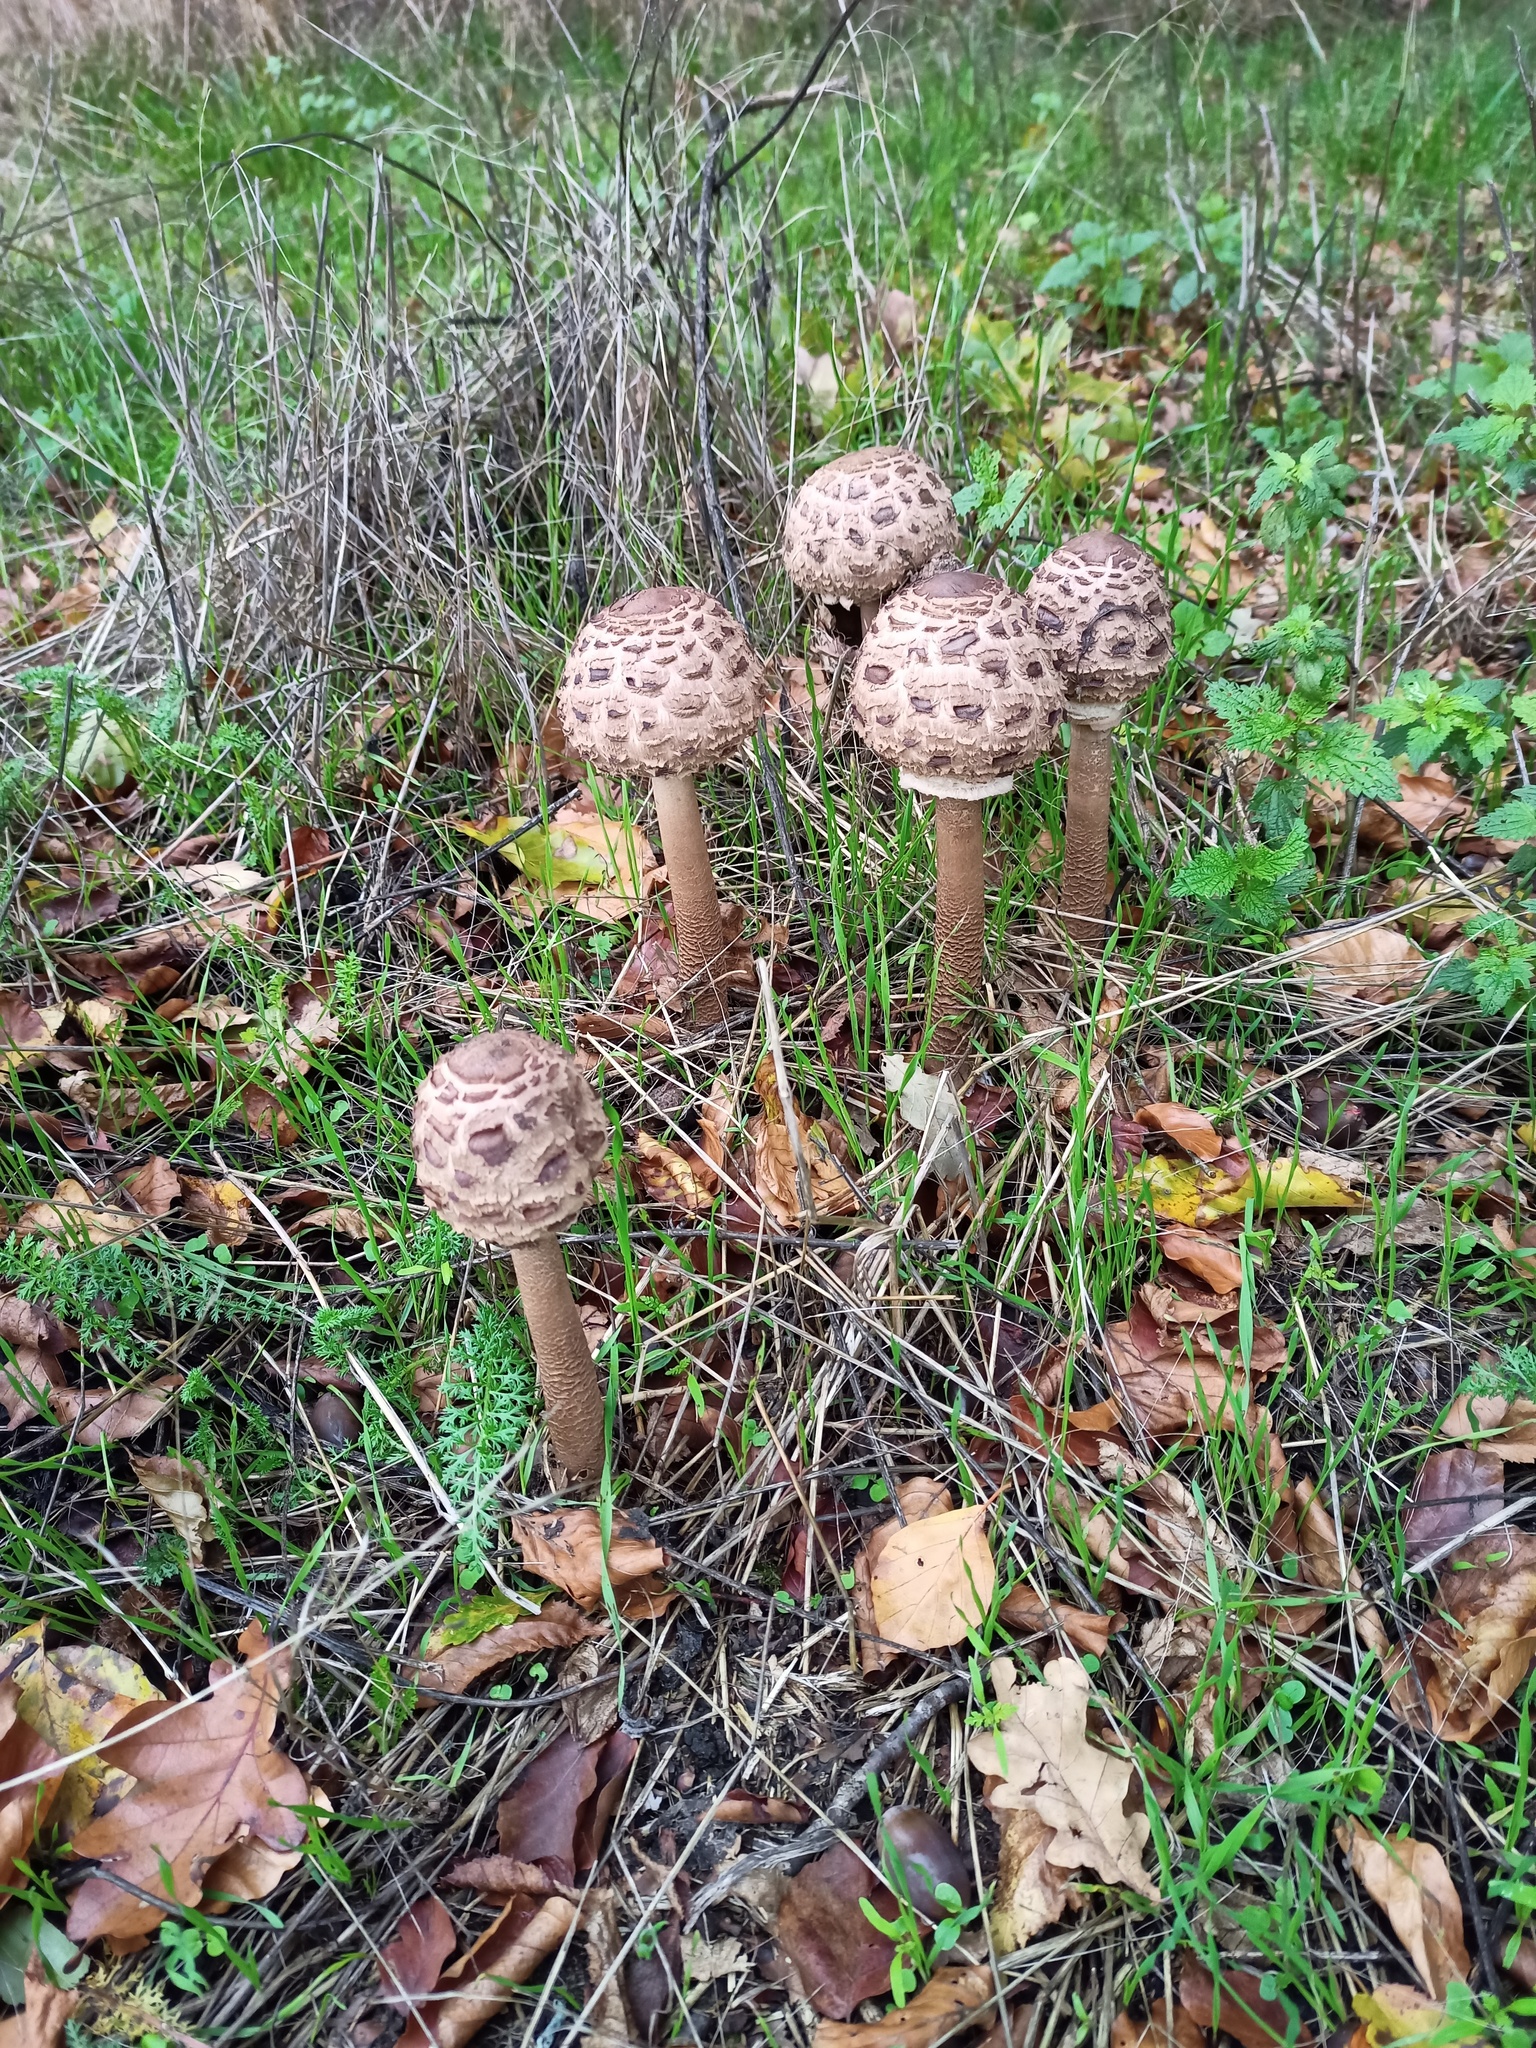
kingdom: Fungi
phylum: Basidiomycota
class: Agaricomycetes
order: Agaricales
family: Agaricaceae
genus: Macrolepiota
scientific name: Macrolepiota procera
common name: Parasol
